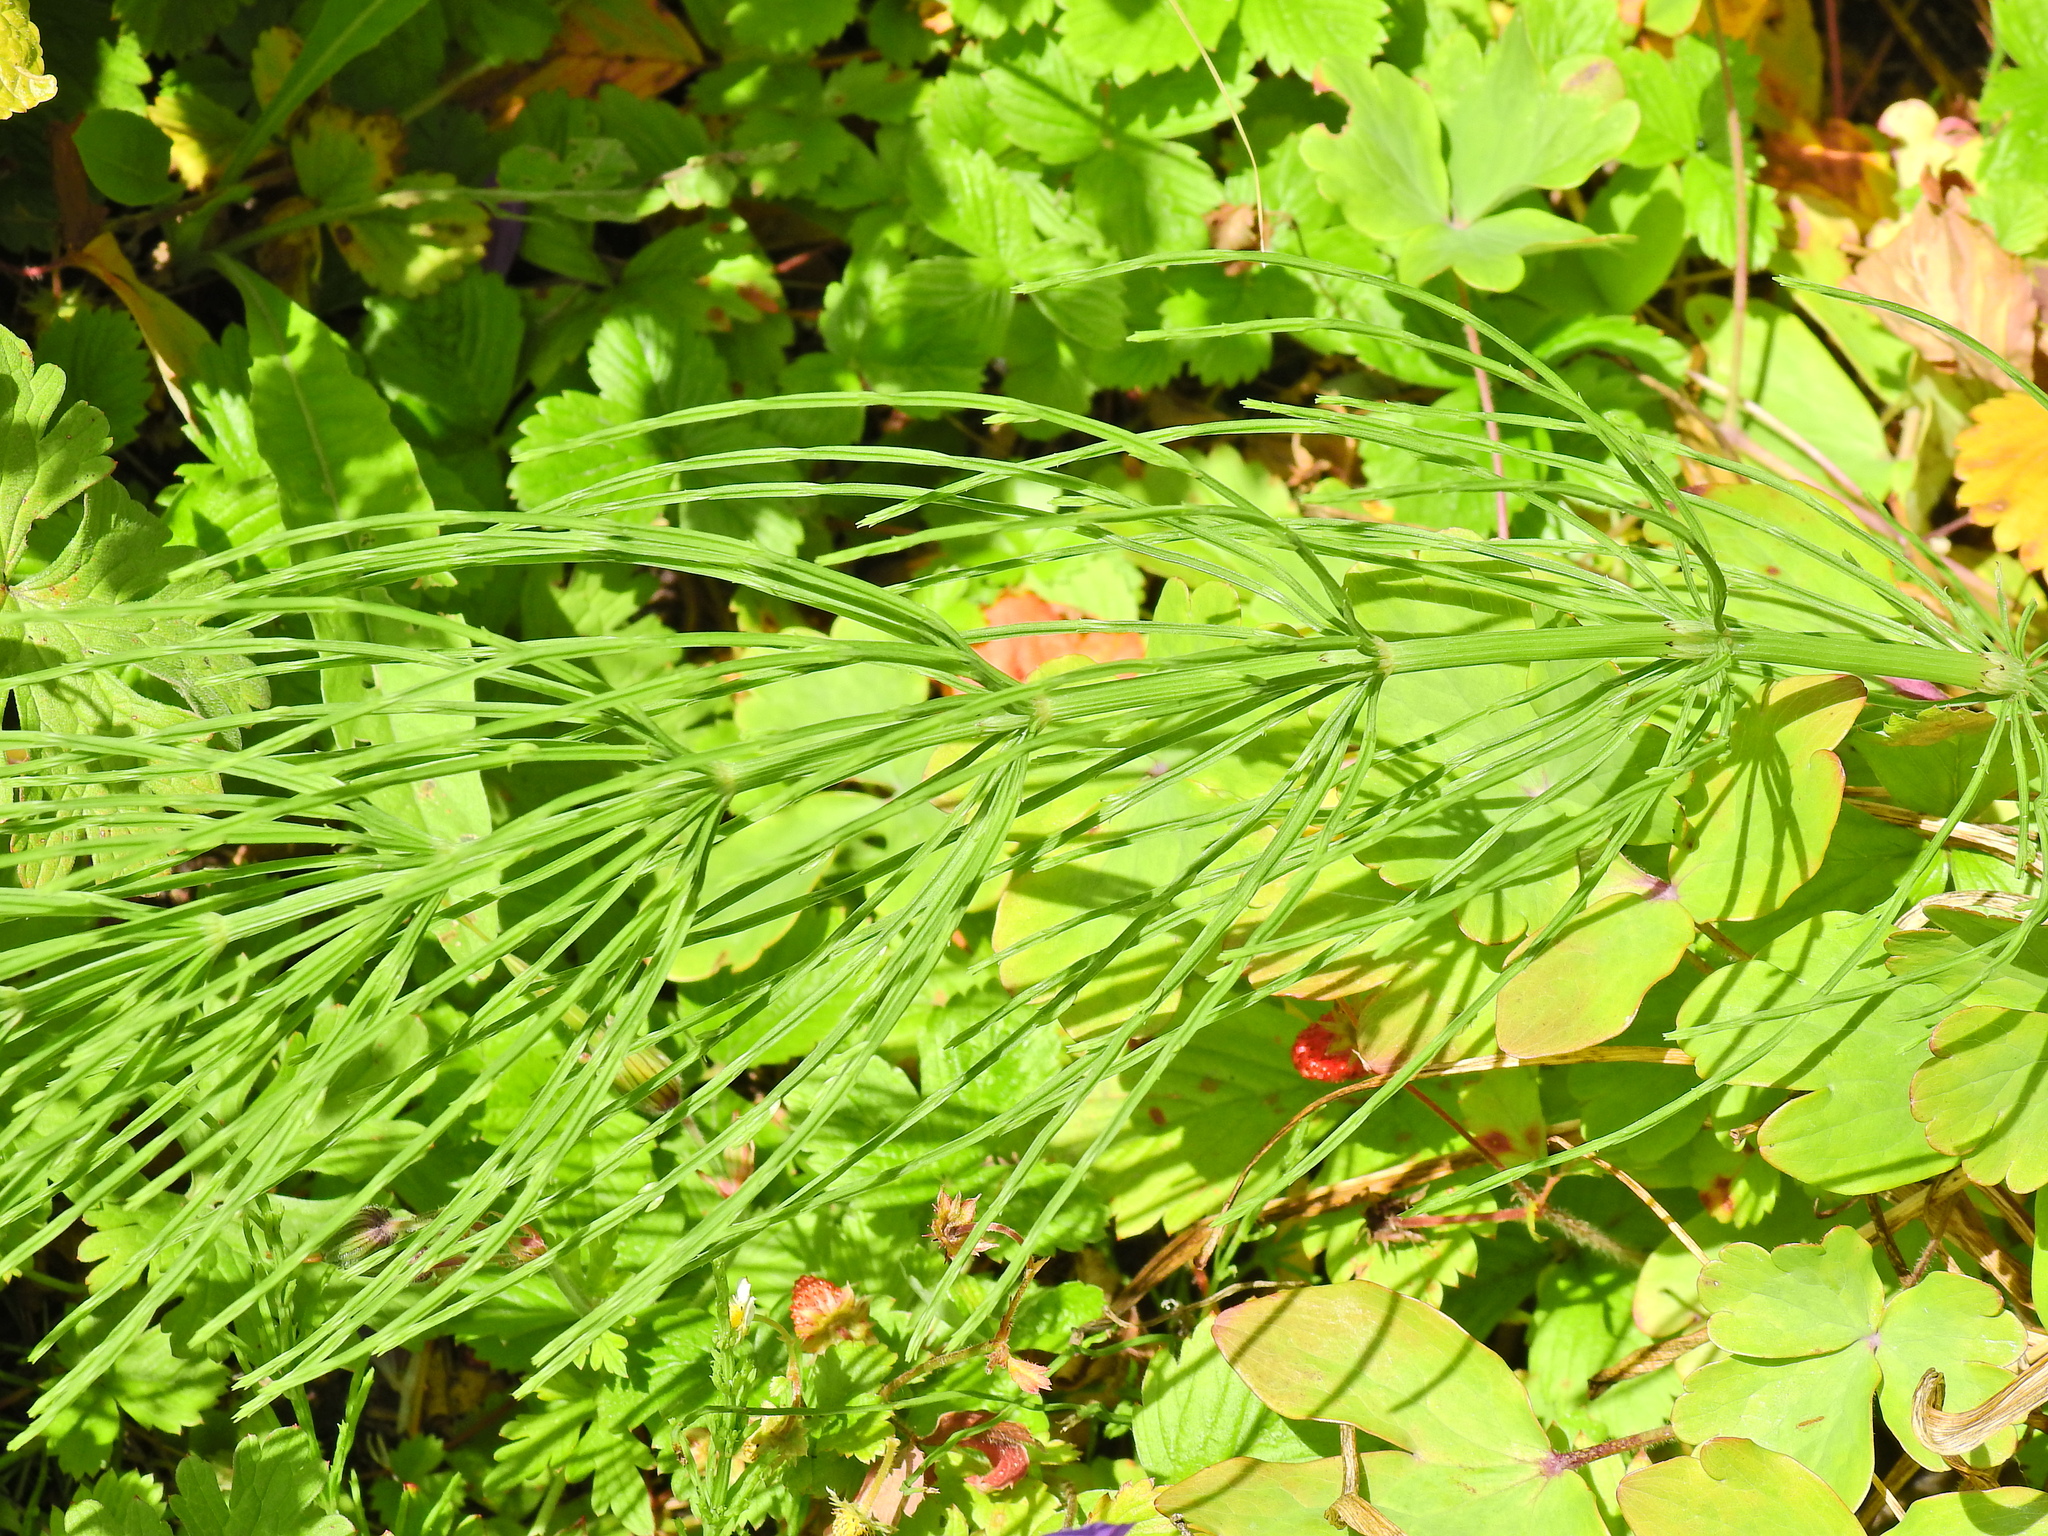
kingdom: Plantae
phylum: Tracheophyta
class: Polypodiopsida
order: Equisetales
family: Equisetaceae
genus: Equisetum
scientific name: Equisetum arvense
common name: Field horsetail
